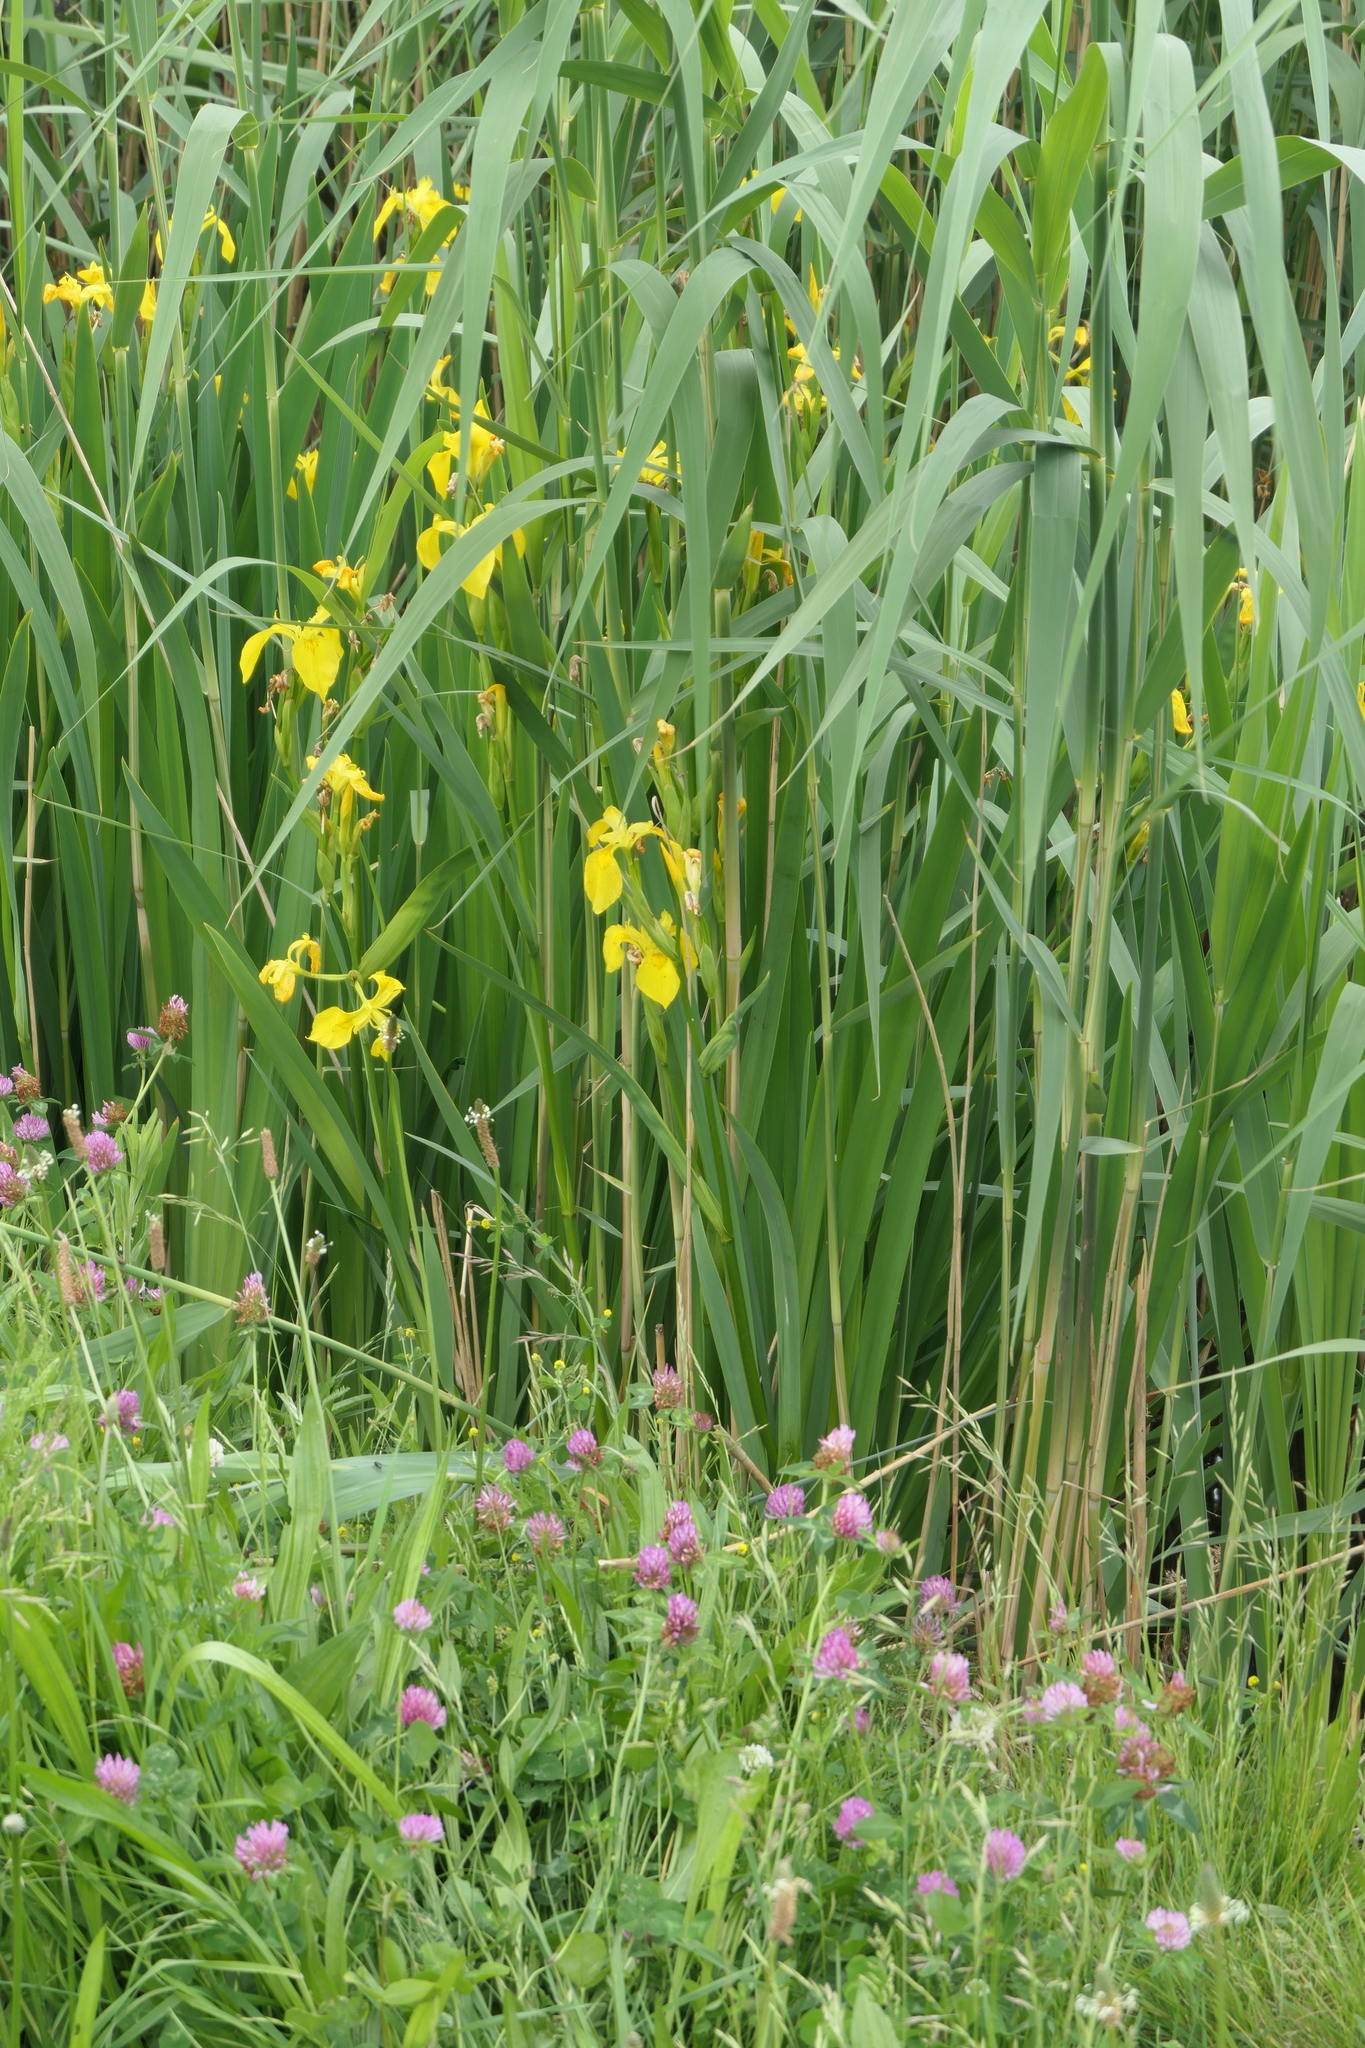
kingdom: Plantae
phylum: Tracheophyta
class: Liliopsida
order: Asparagales
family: Iridaceae
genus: Iris
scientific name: Iris pseudacorus
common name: Yellow flag
